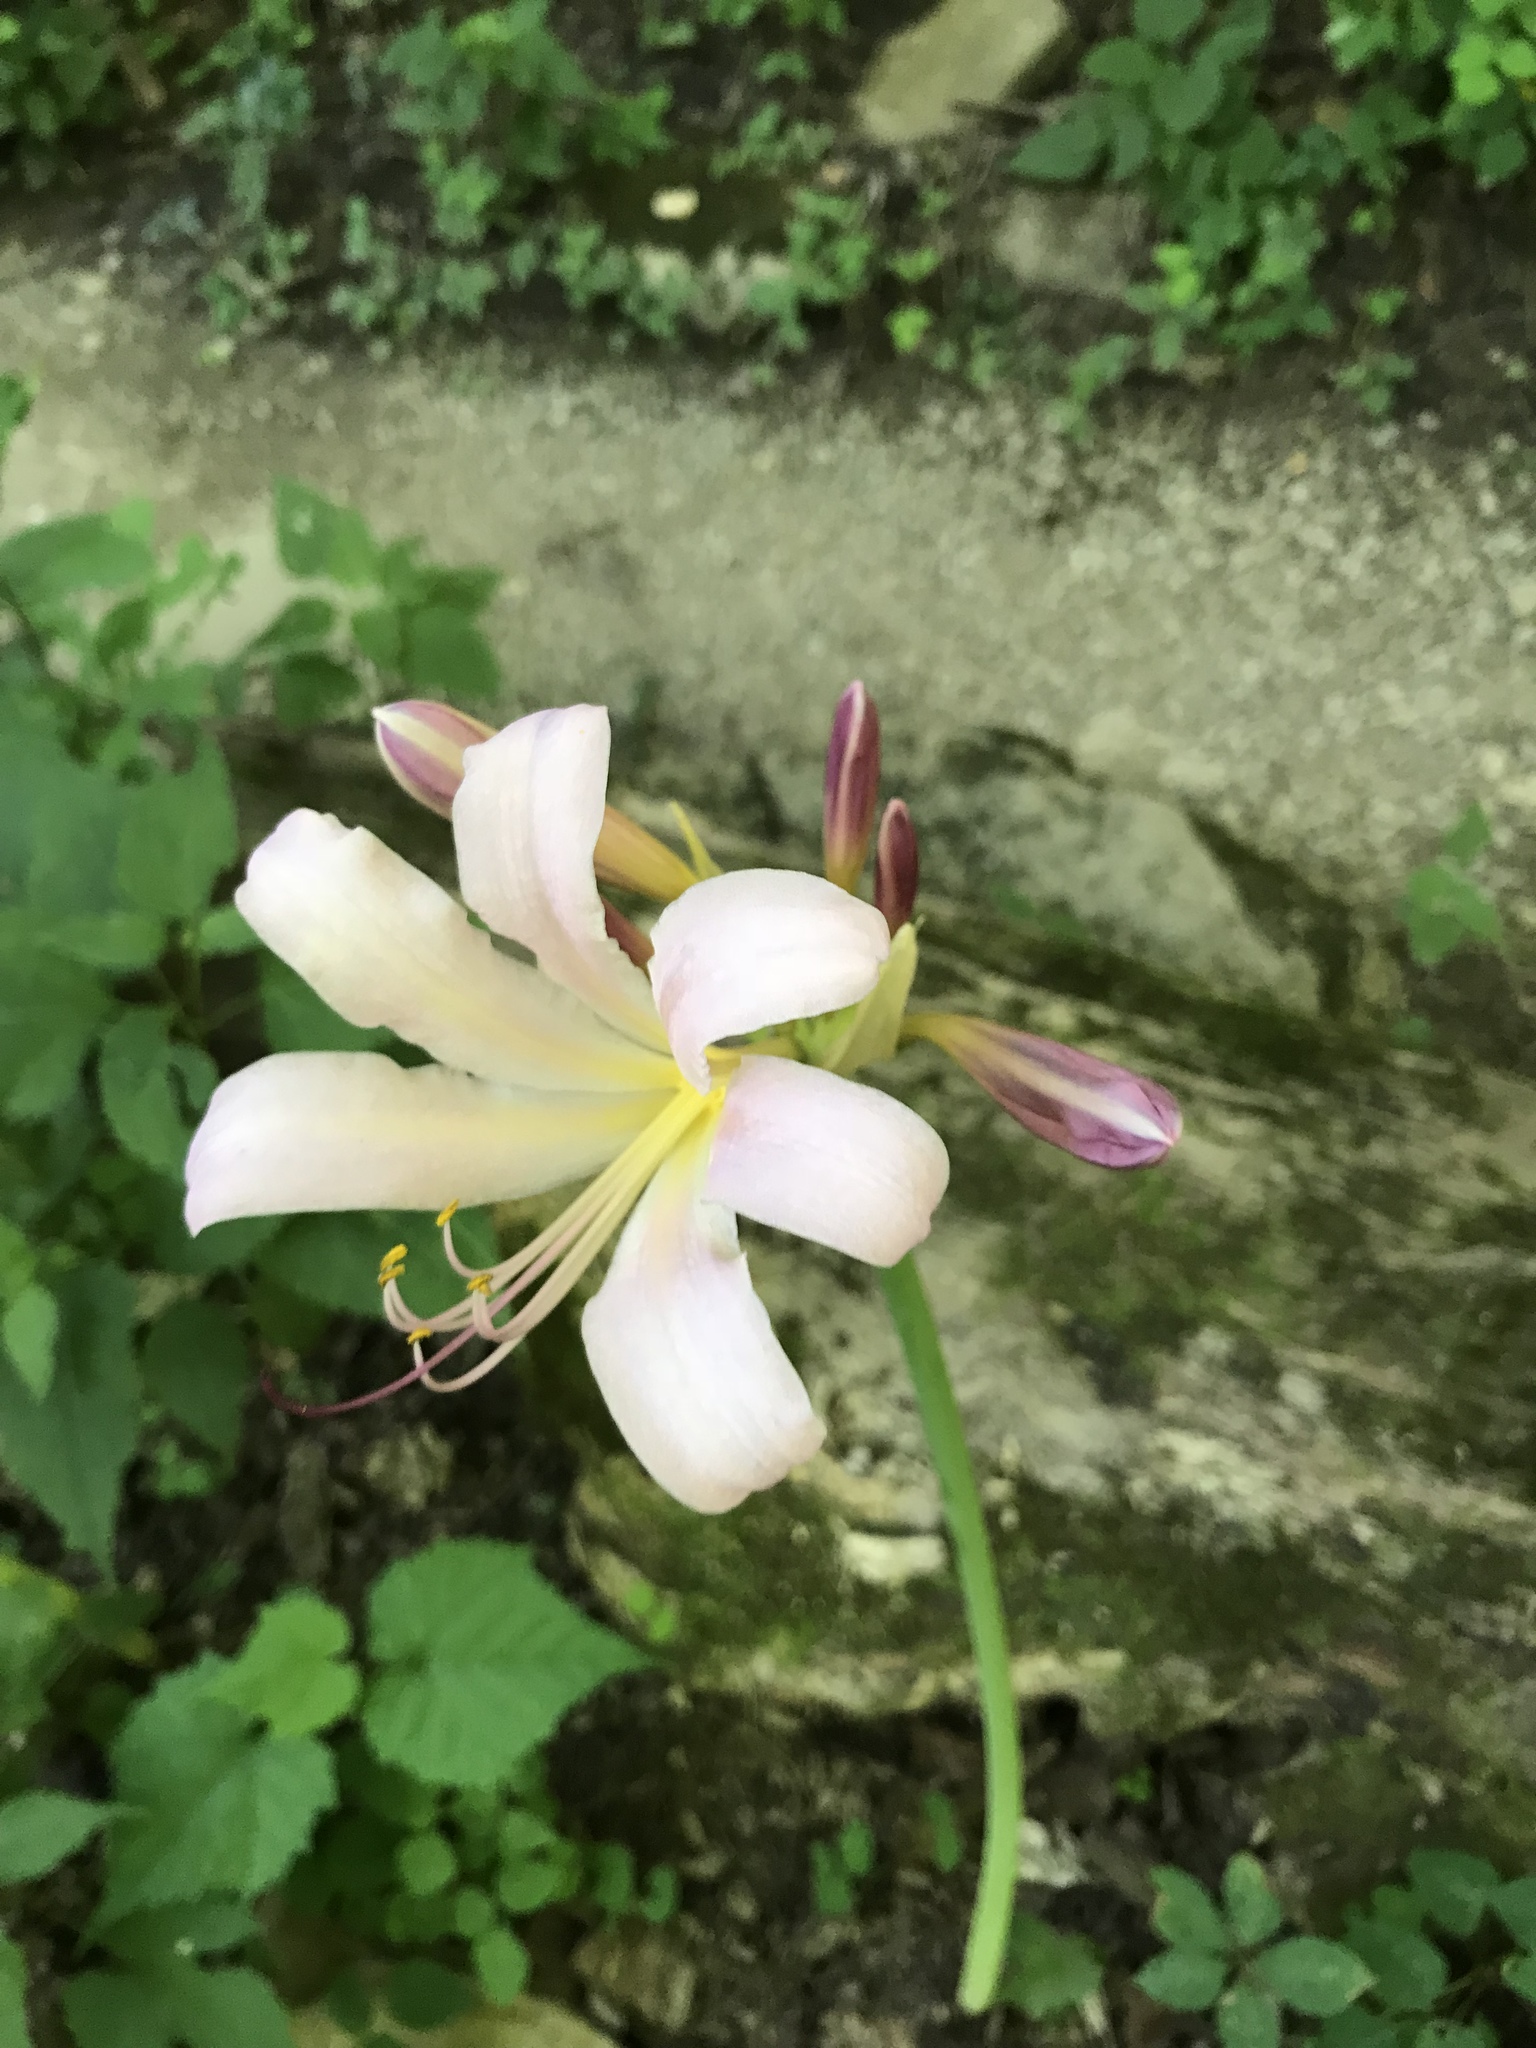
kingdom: Plantae
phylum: Tracheophyta
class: Liliopsida
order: Asparagales
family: Amaryllidaceae
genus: Lycoris
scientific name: Lycoris squamigera
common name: Magic-lily
